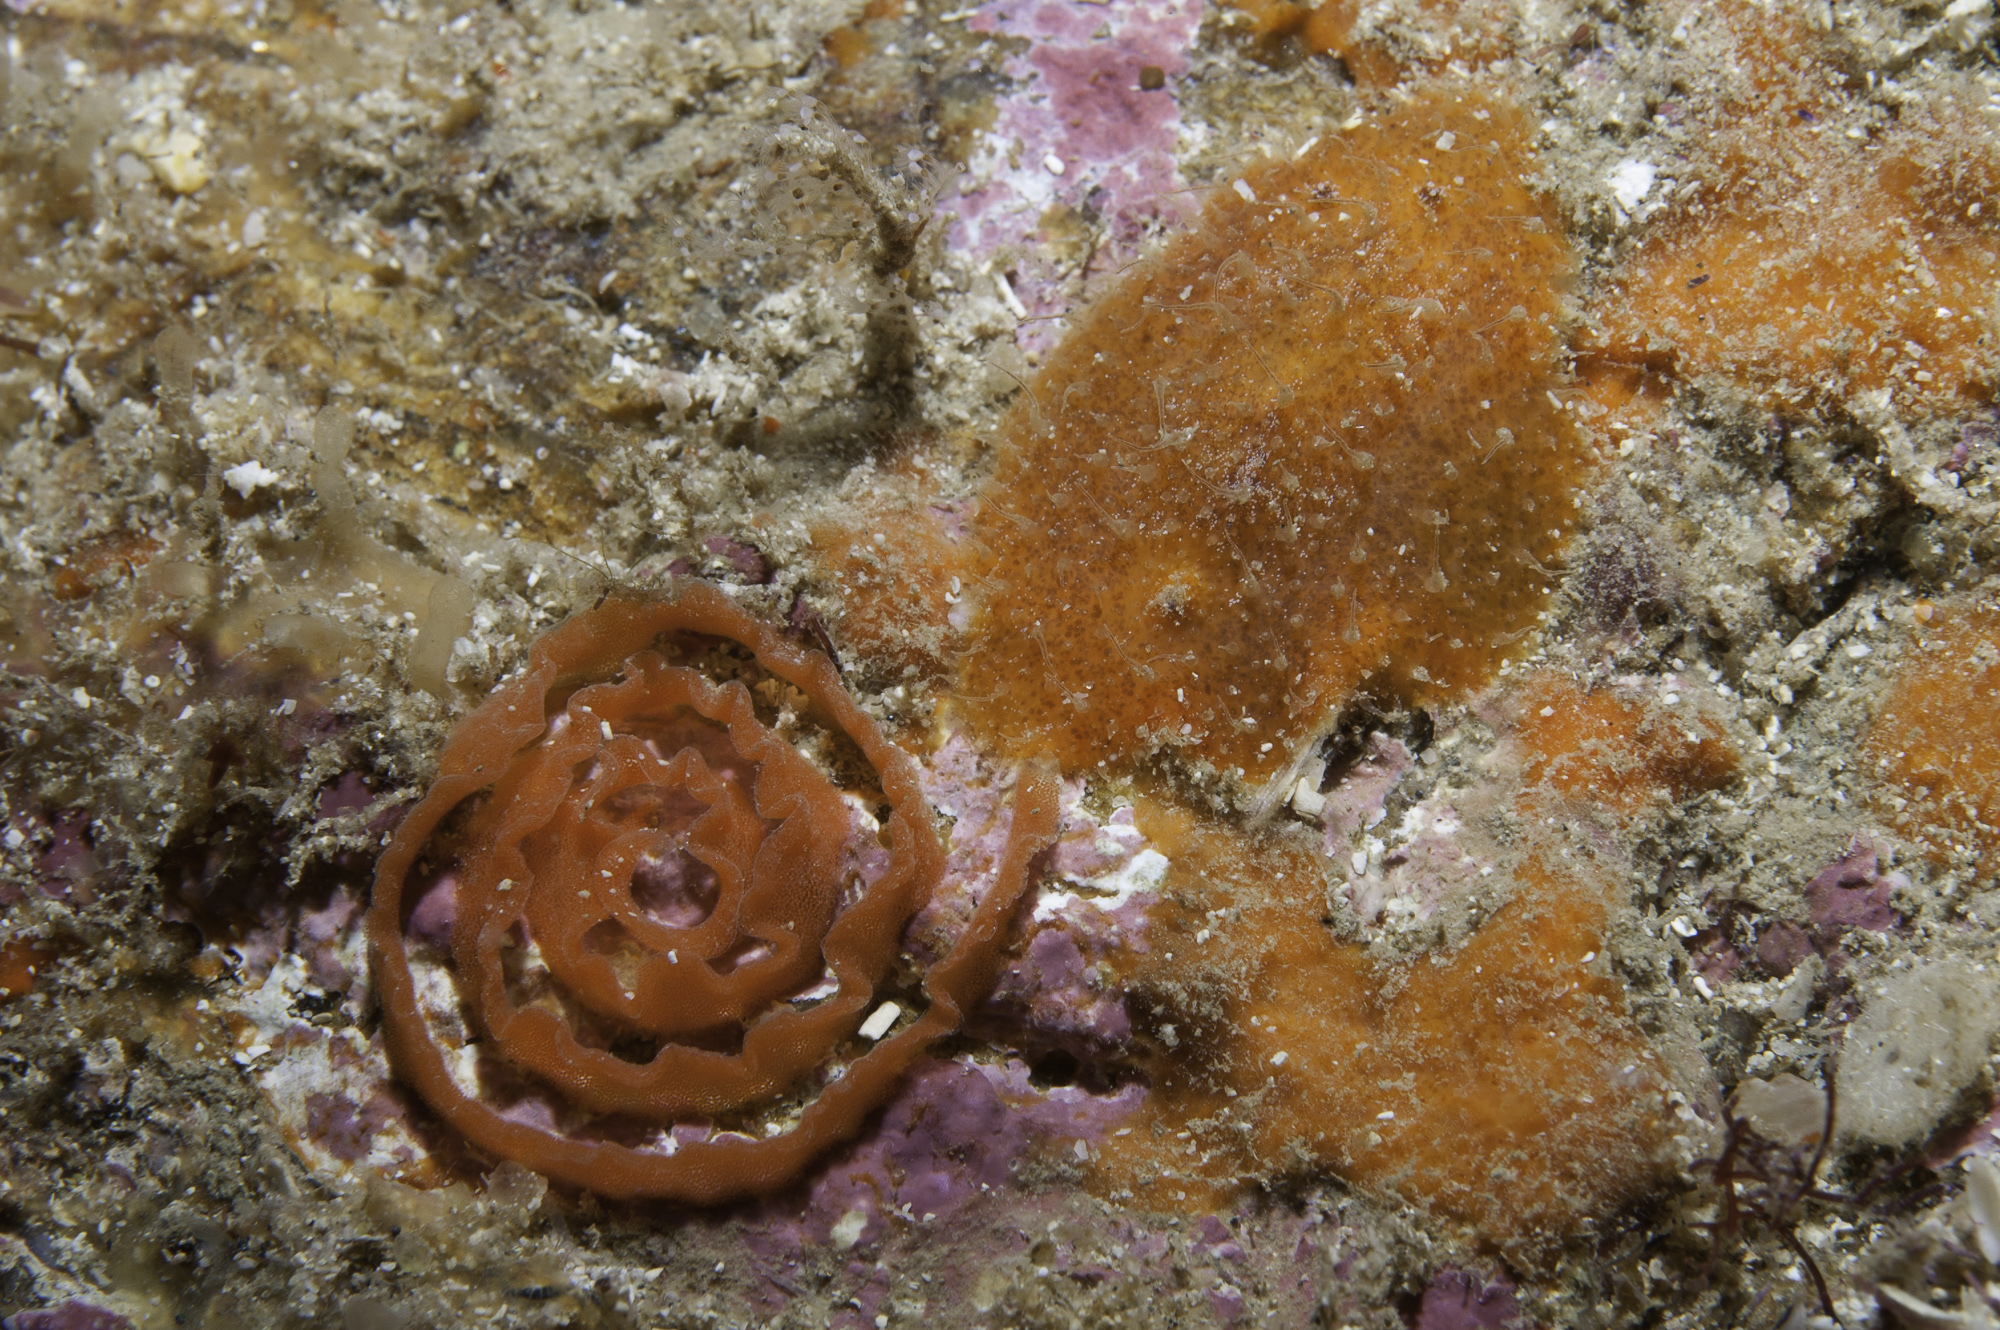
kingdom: Animalia
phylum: Mollusca
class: Gastropoda
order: Nudibranchia
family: Discodorididae
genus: Thordisa
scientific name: Thordisa diuda
